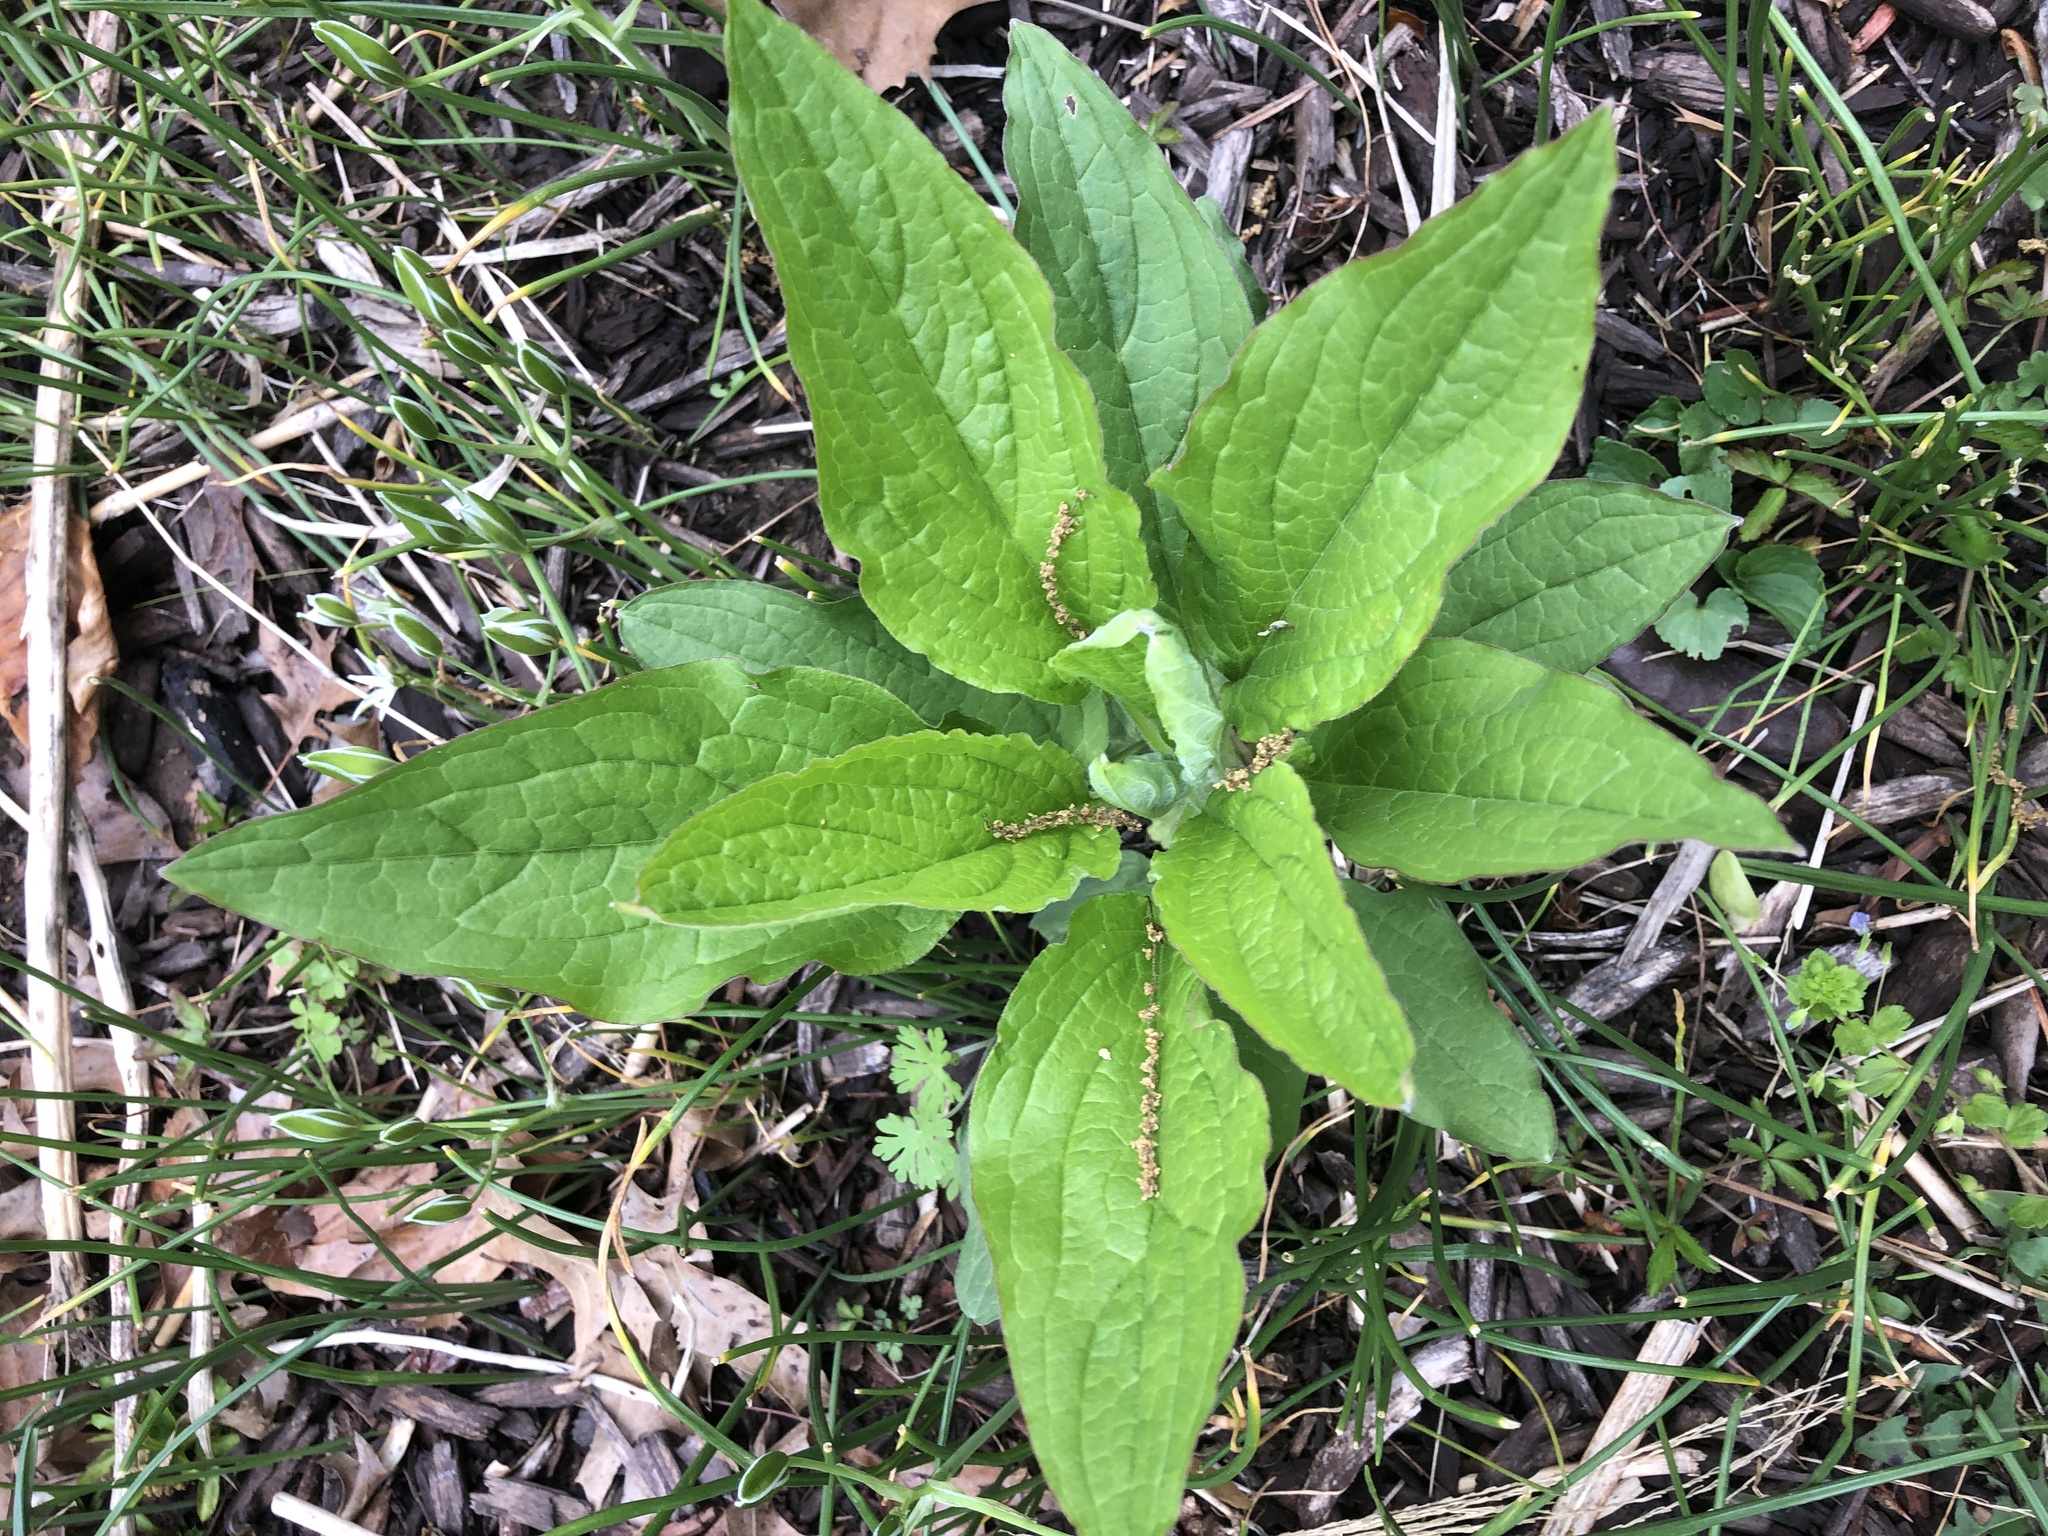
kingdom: Plantae
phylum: Tracheophyta
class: Magnoliopsida
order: Boraginales
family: Boraginaceae
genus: Hackelia
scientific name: Hackelia virginiana
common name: Beggar's-lice
